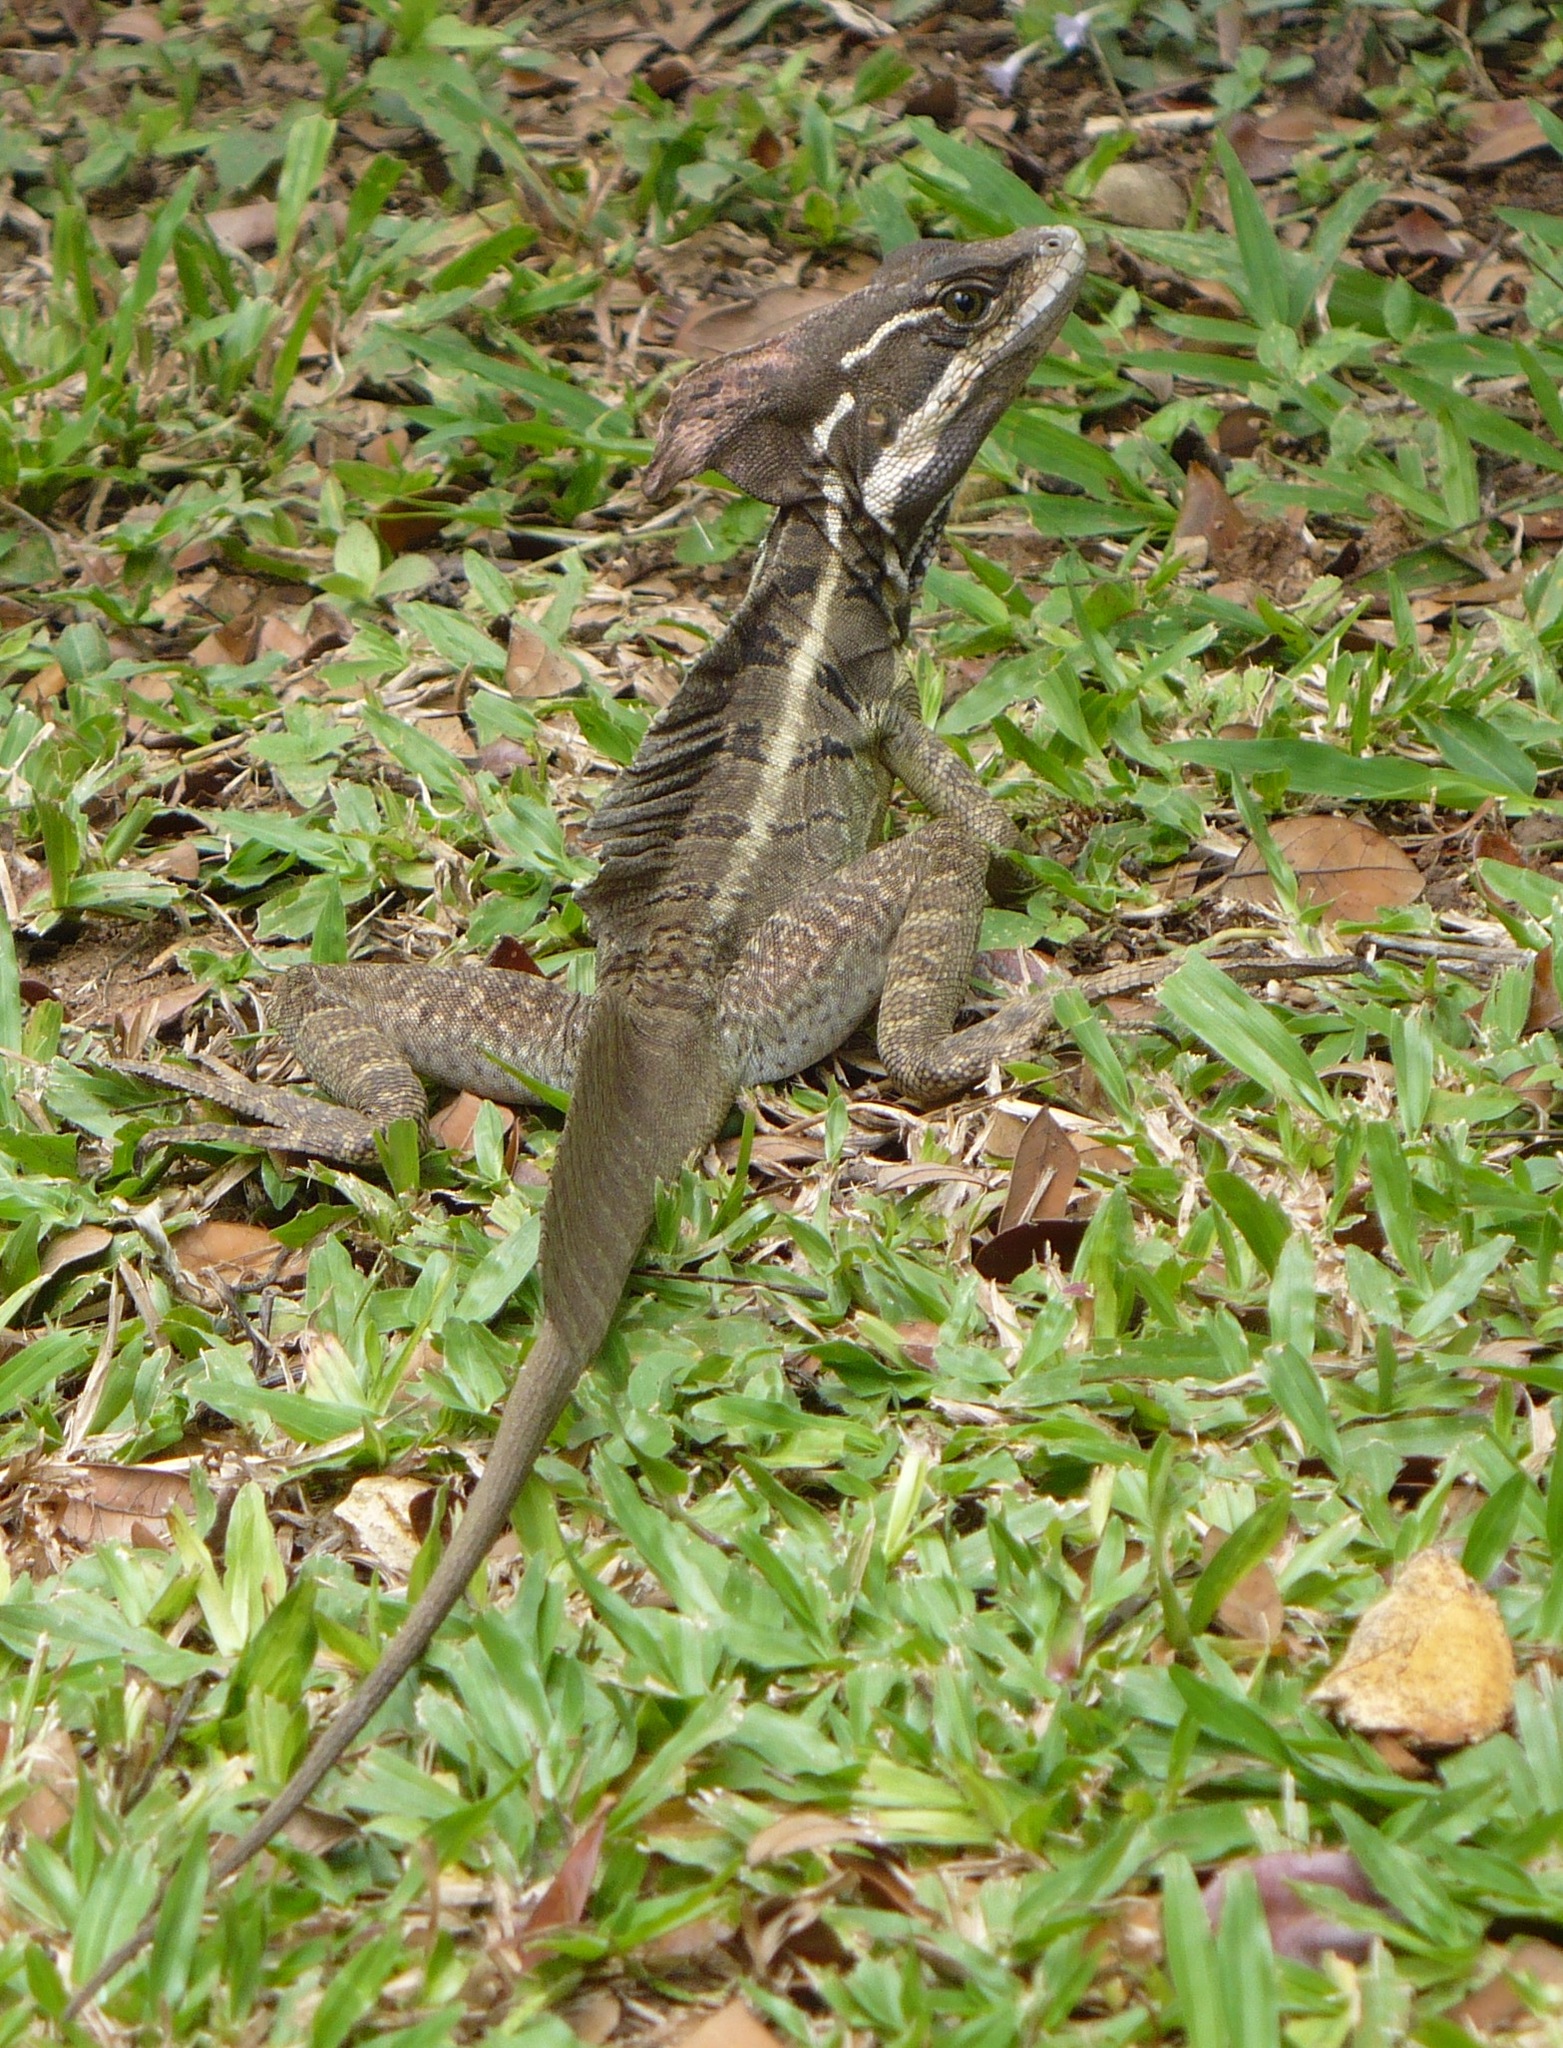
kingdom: Animalia
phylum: Chordata
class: Squamata
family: Corytophanidae
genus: Basiliscus
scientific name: Basiliscus basiliscus
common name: Common basilisk
